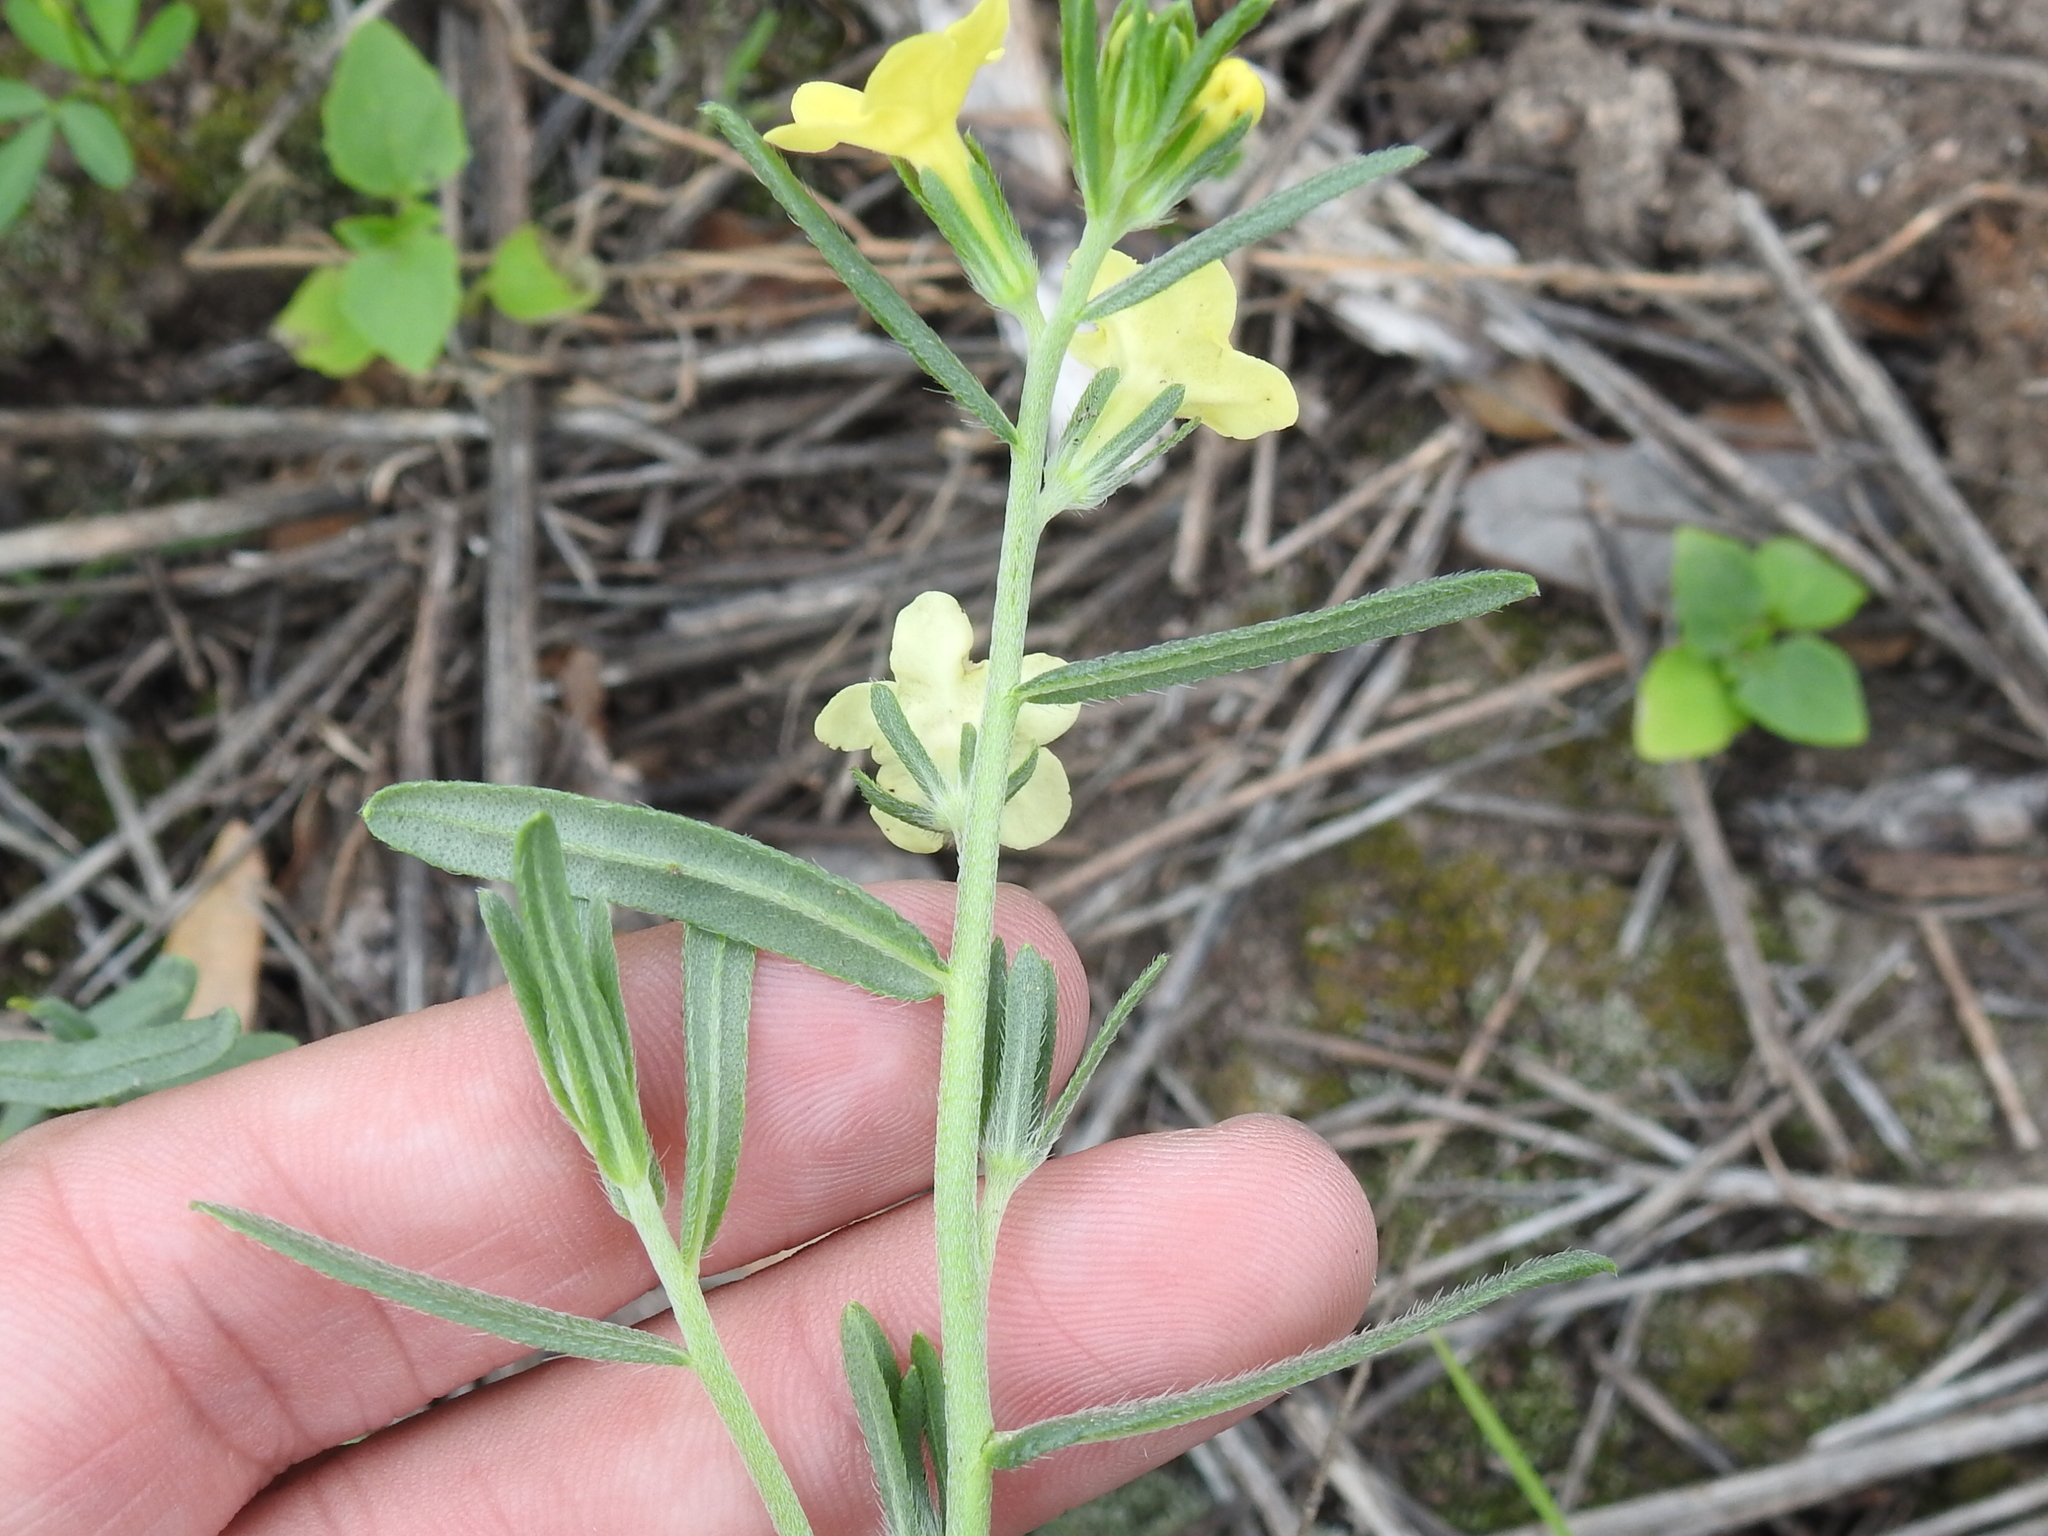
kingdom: Plantae
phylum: Tracheophyta
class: Magnoliopsida
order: Boraginales
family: Boraginaceae
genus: Lithospermum
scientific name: Lithospermum cobrense
